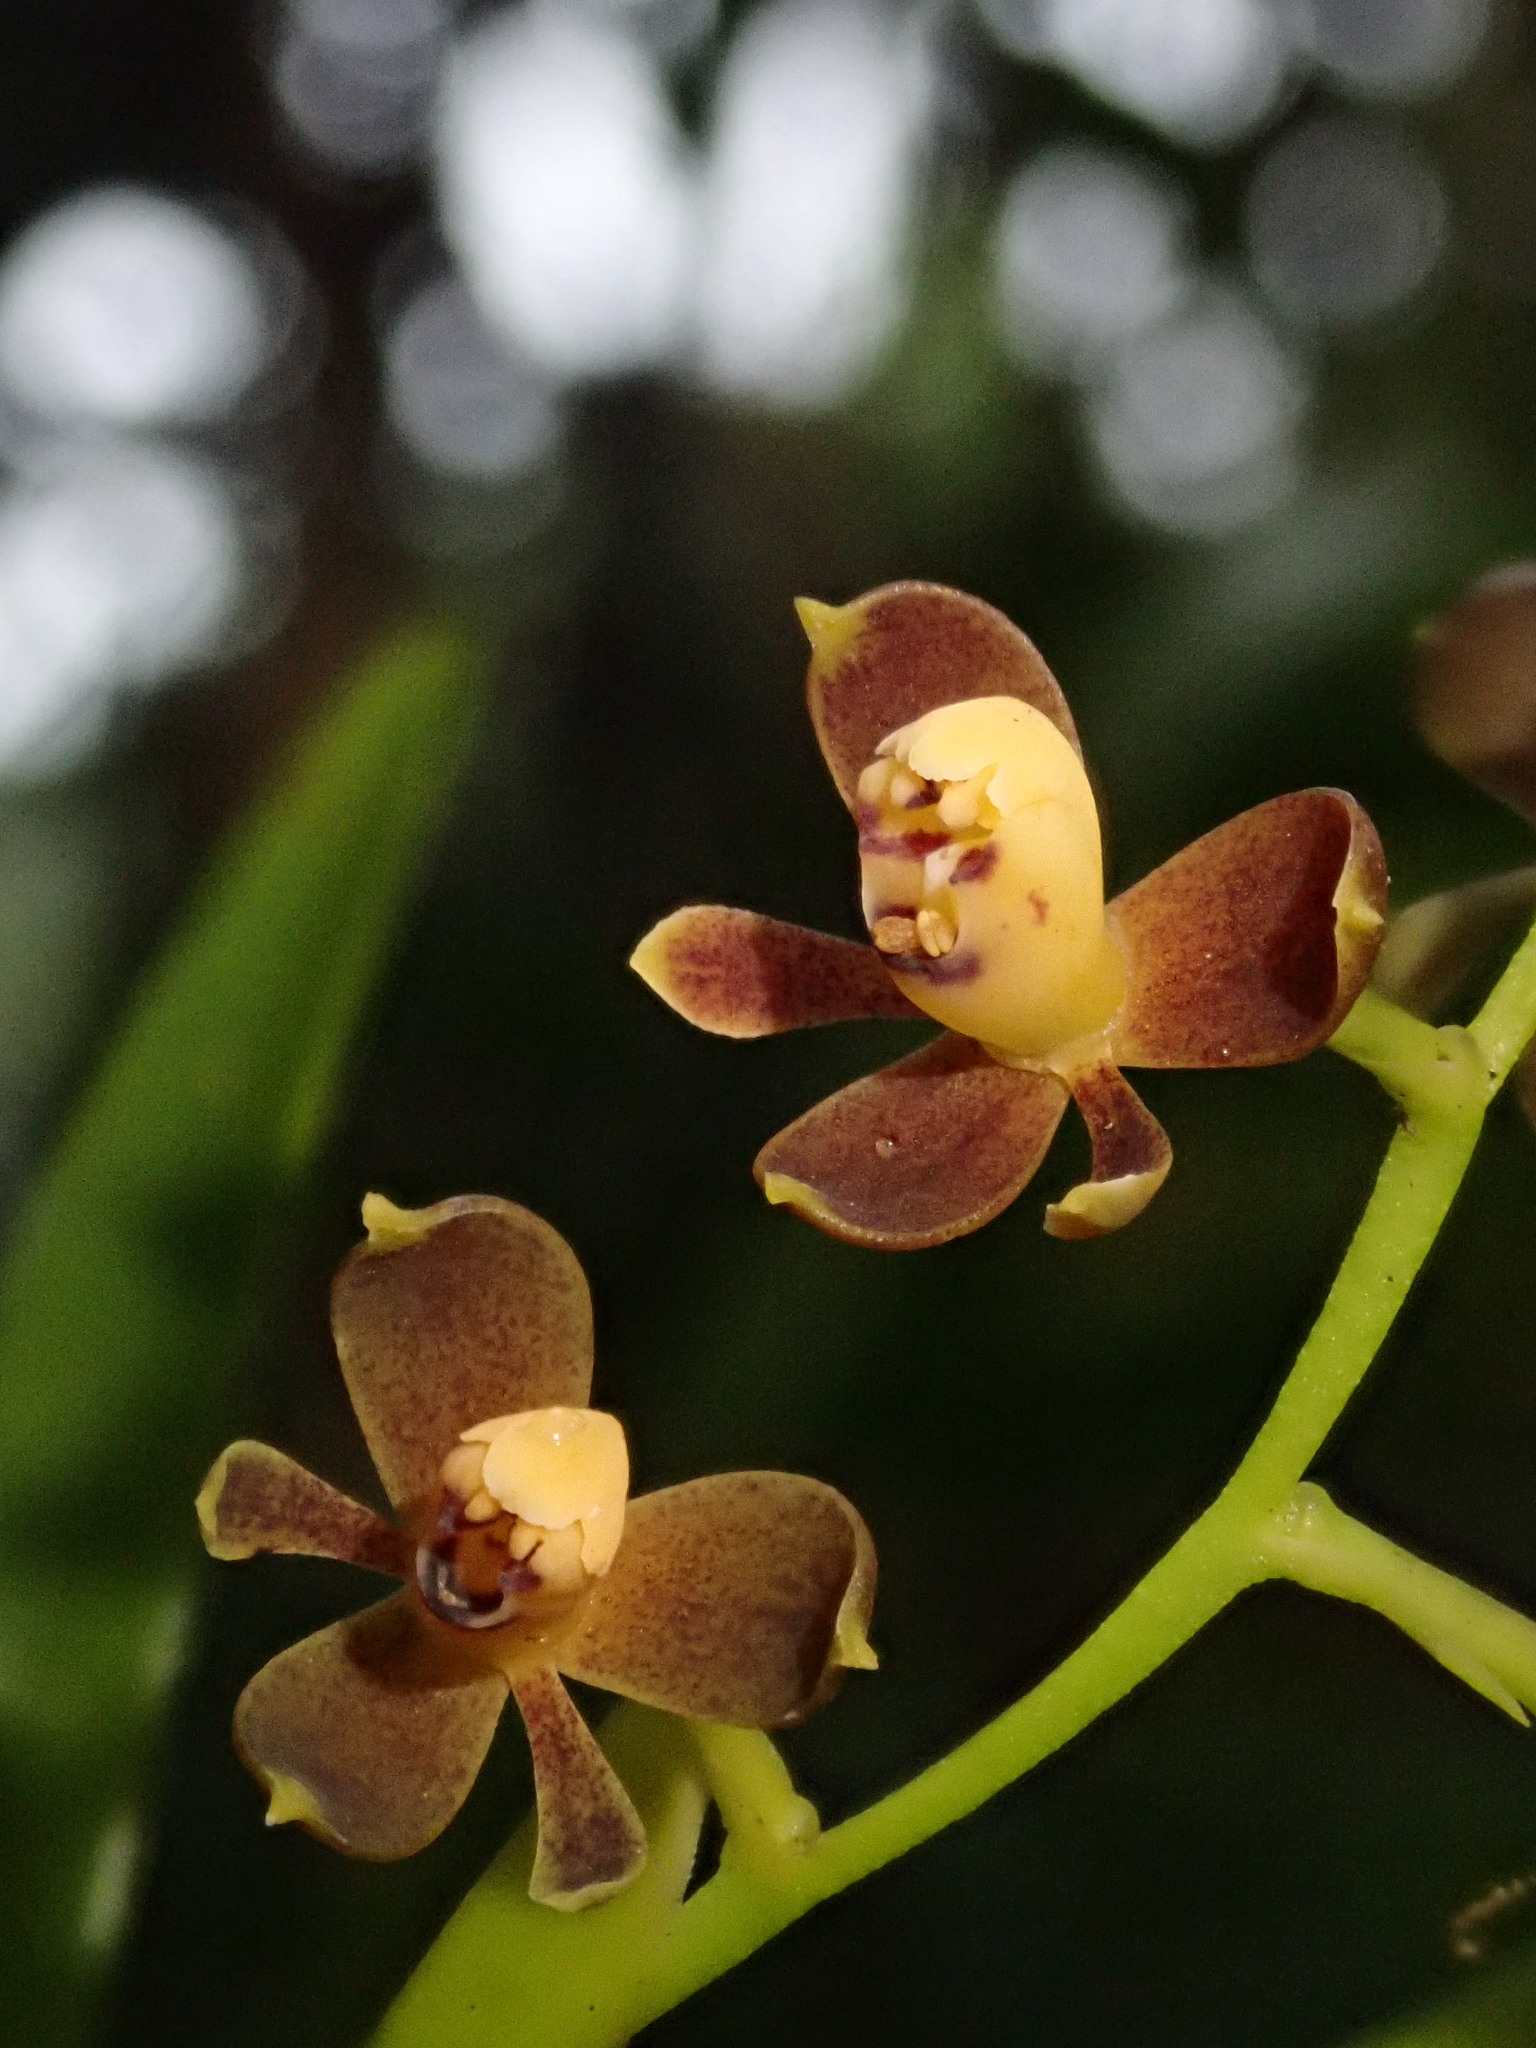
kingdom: Plantae
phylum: Tracheophyta
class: Liliopsida
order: Asparagales
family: Orchidaceae
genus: Epidendrum
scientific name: Epidendrum mancum
